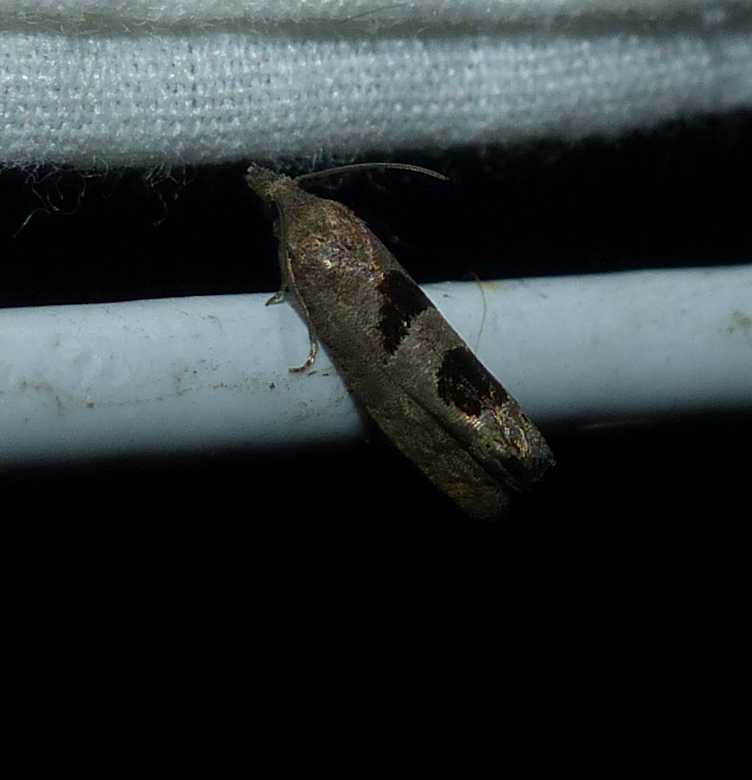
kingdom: Animalia
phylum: Arthropoda
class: Insecta
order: Lepidoptera
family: Tortricidae
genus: Eucosma
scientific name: Eucosma tomonana
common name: Aster-head eucosma moth
